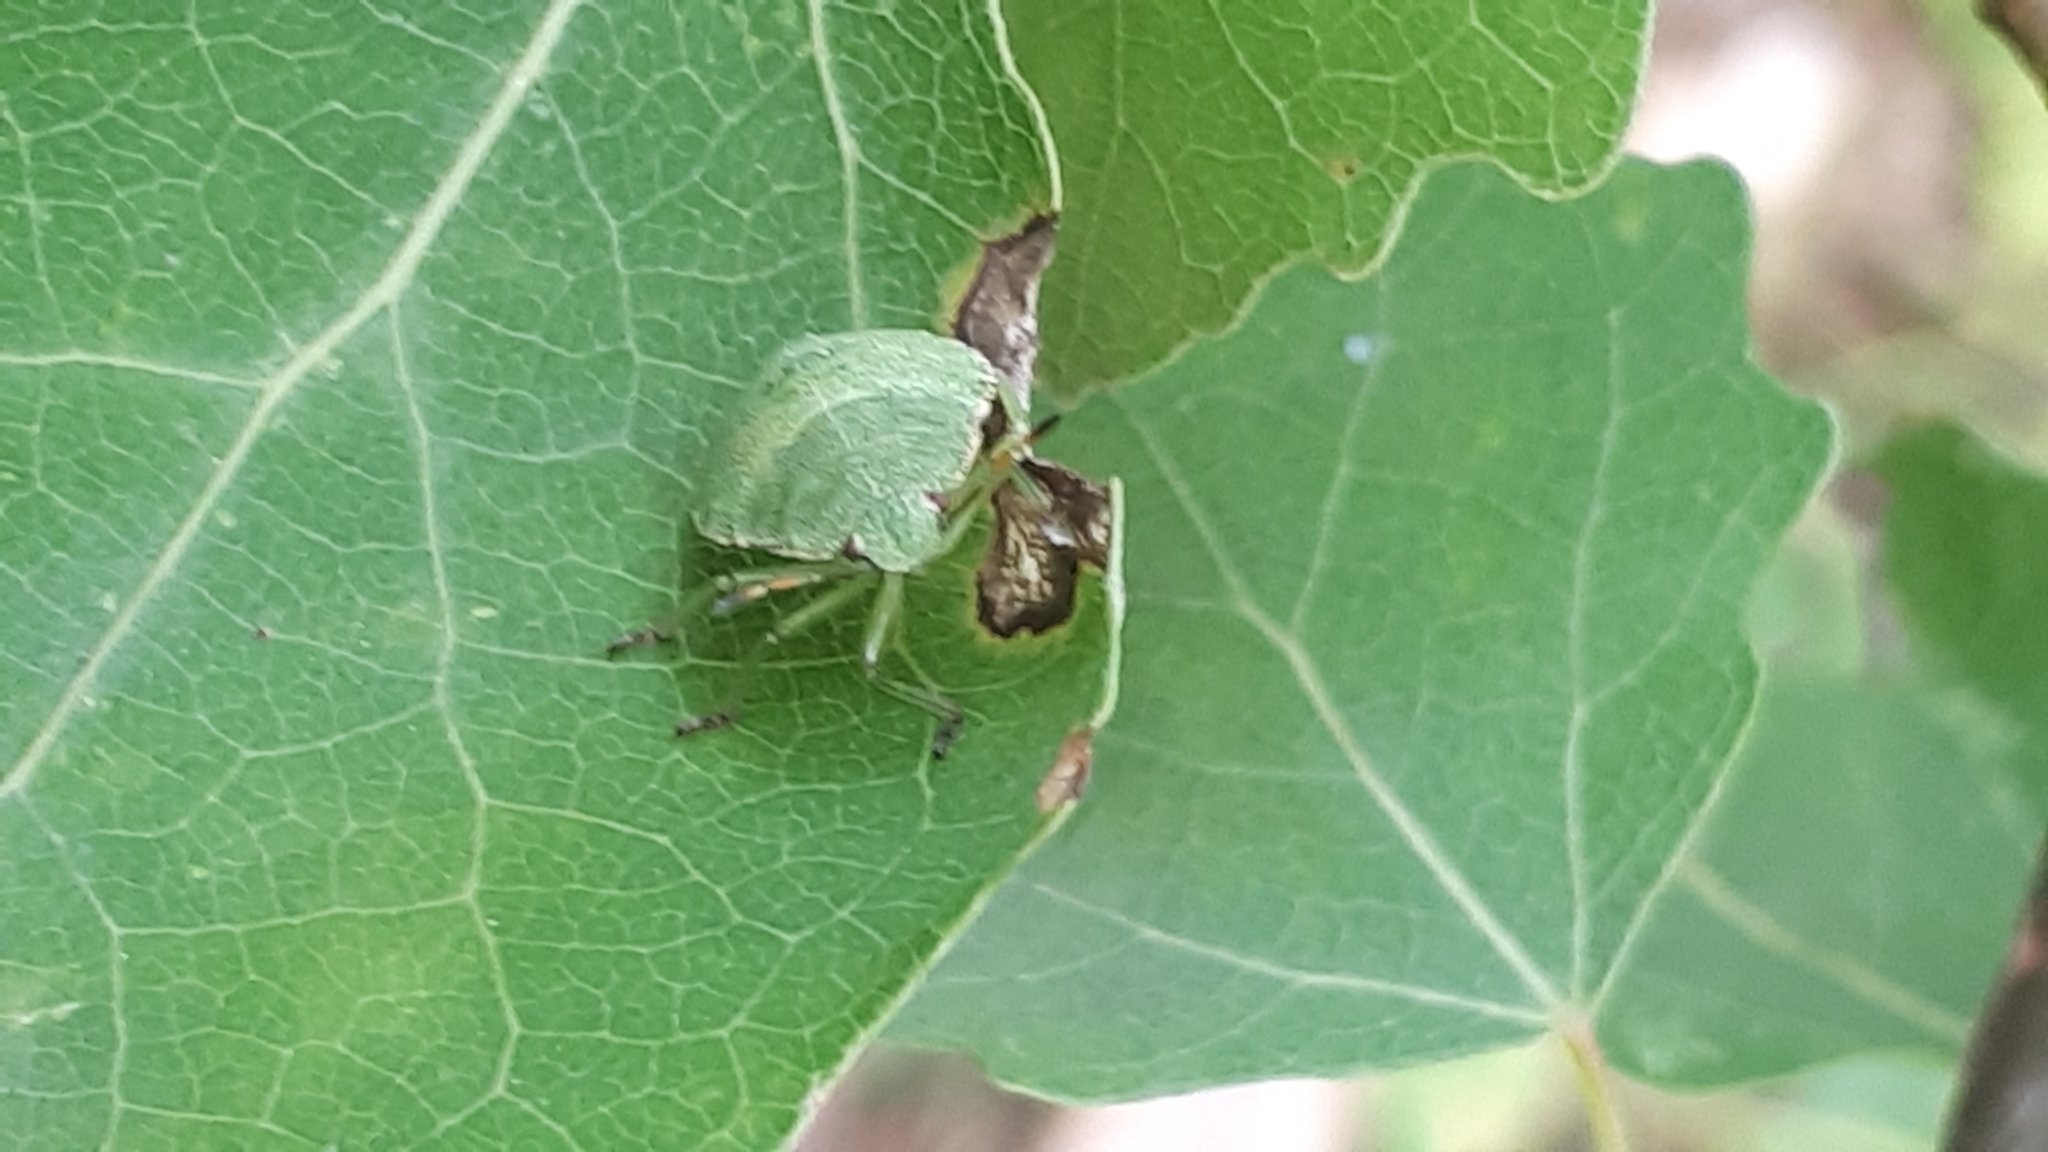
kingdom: Animalia
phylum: Arthropoda
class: Insecta
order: Hemiptera
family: Pentatomidae
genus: Palomena
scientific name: Palomena prasina
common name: Green shieldbug
